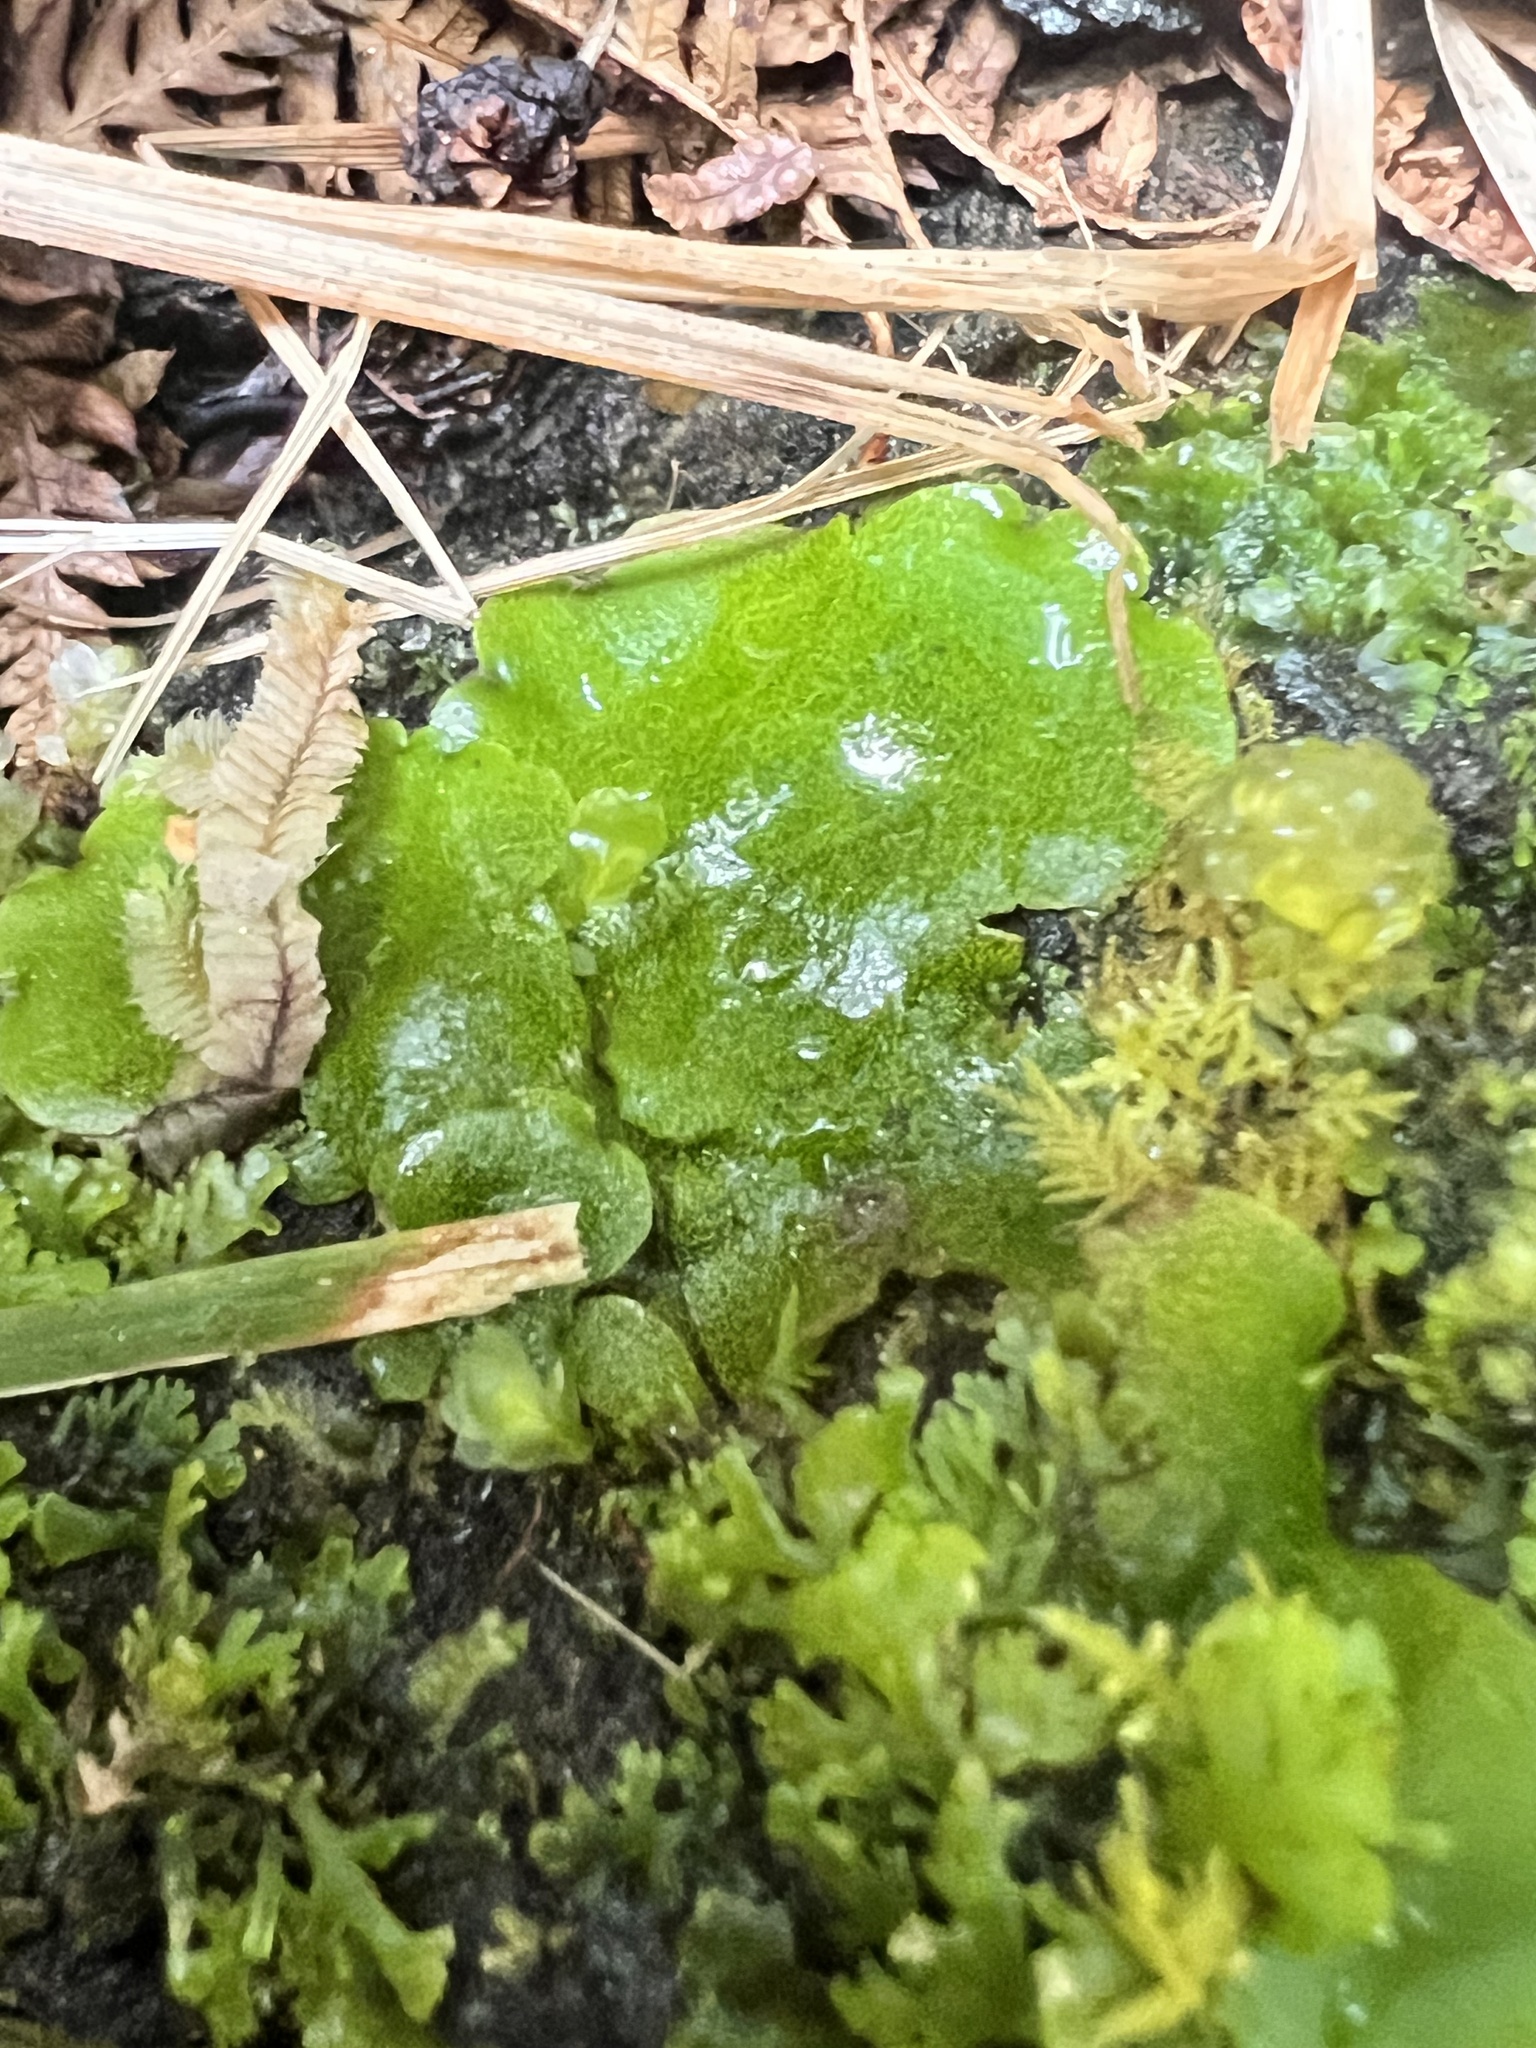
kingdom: Plantae
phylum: Marchantiophyta
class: Marchantiopsida
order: Marchantiales
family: Monocleaceae
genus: Monoclea
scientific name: Monoclea forsteri
